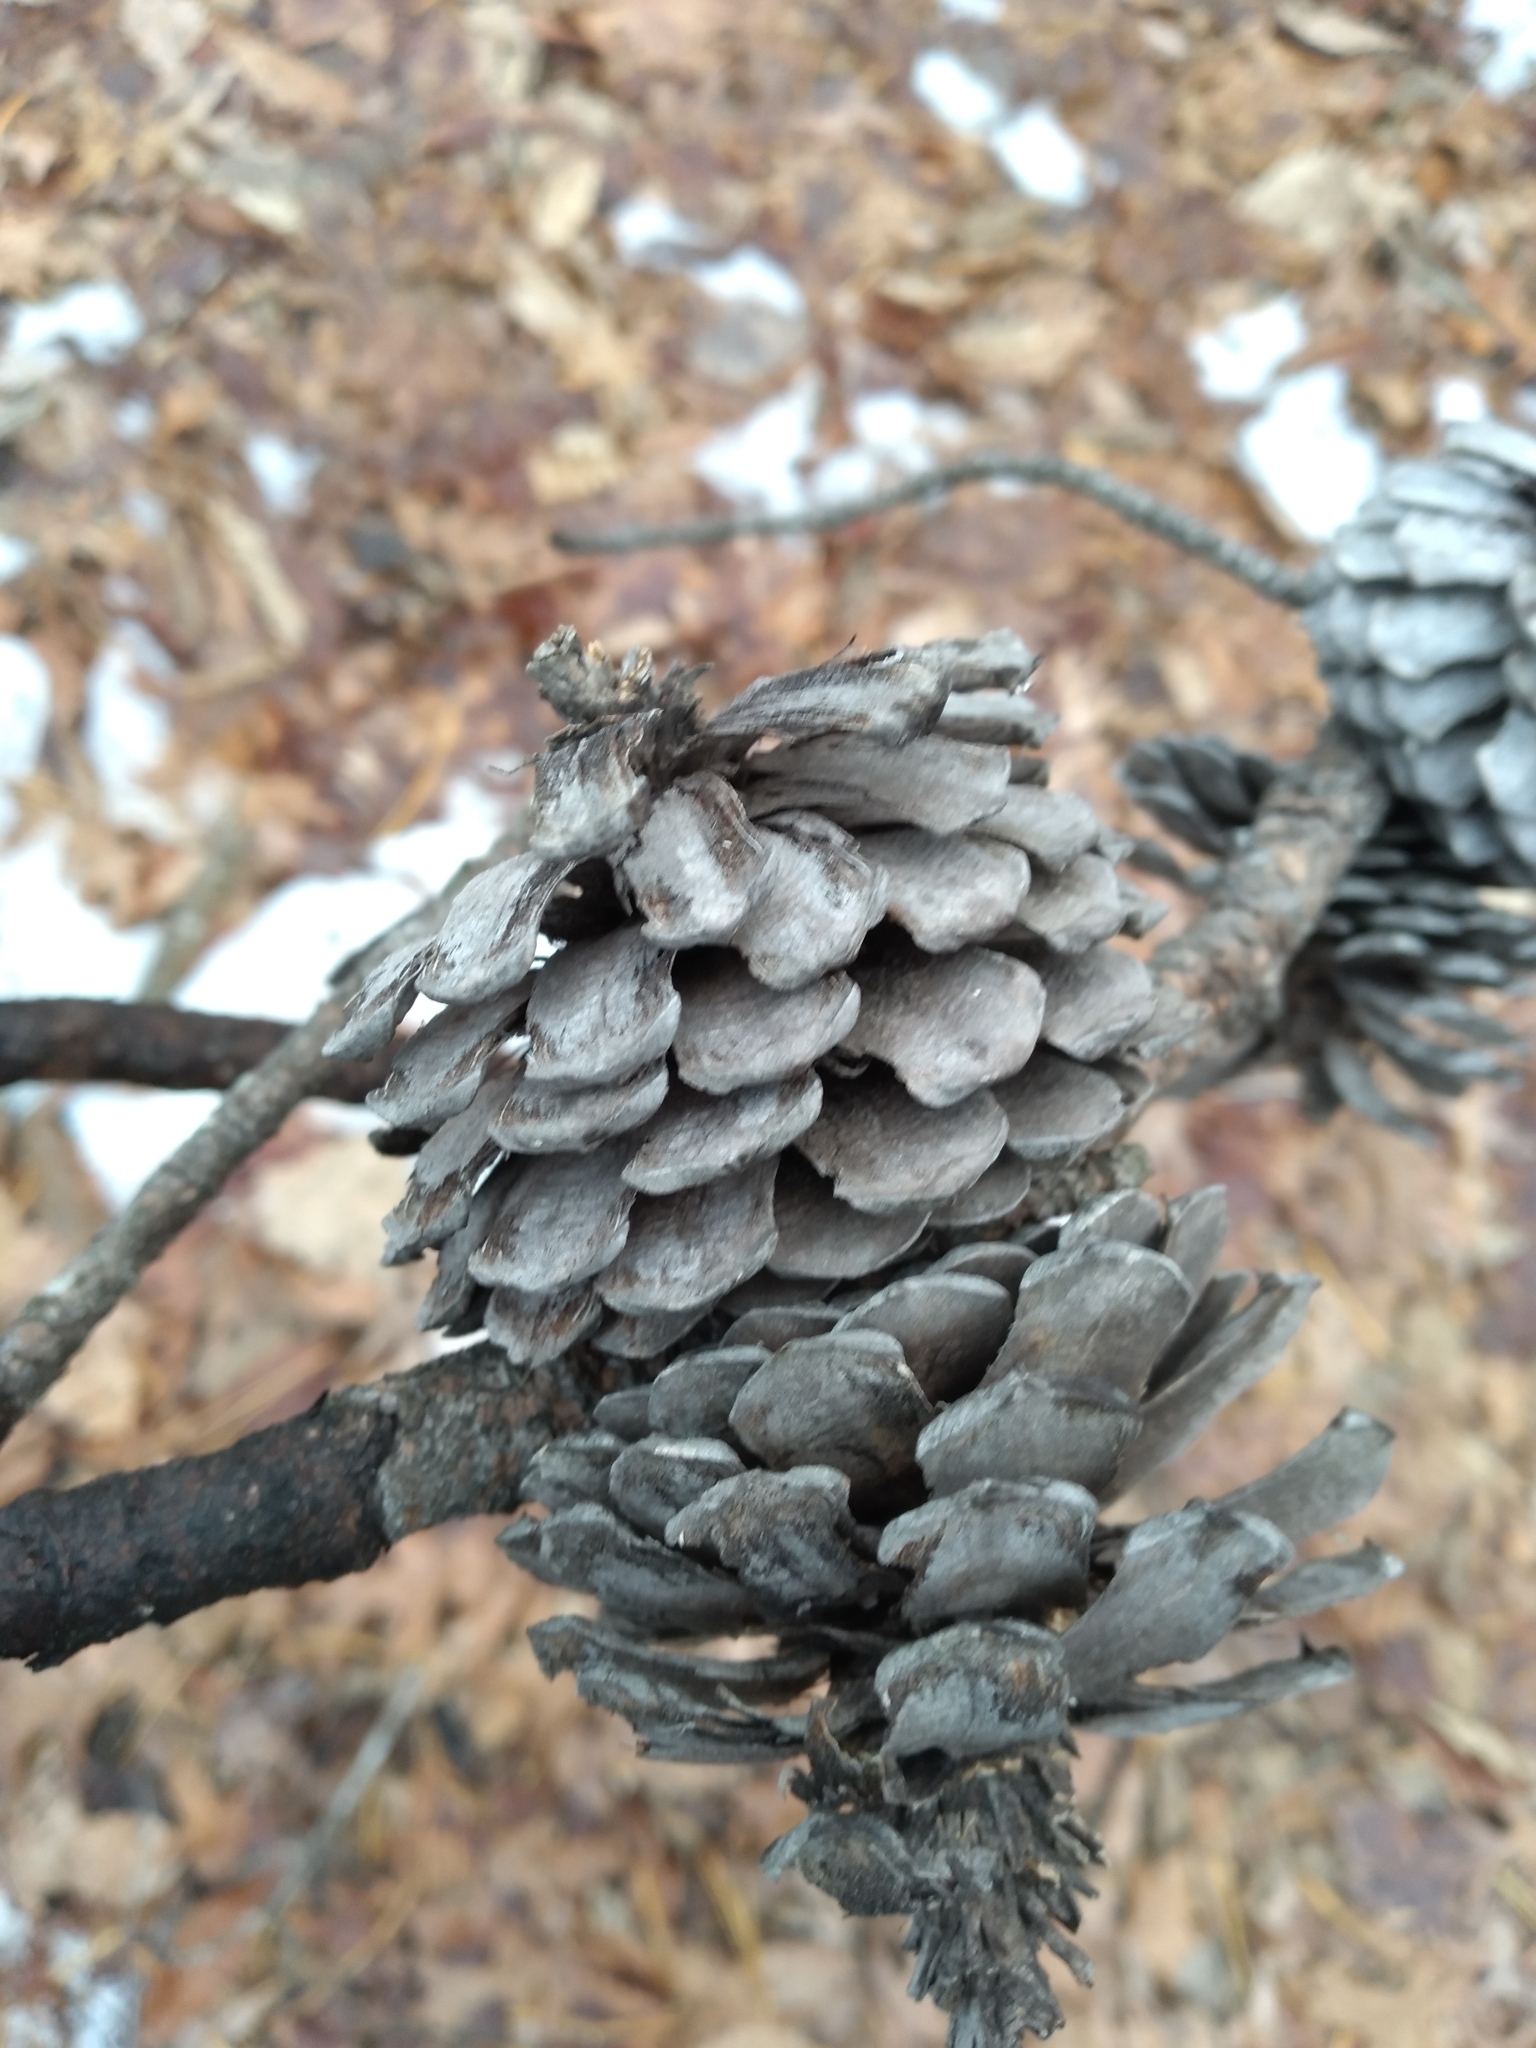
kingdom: Plantae
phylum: Tracheophyta
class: Pinopsida
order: Pinales
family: Pinaceae
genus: Pinus
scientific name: Pinus rigida
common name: Pitch pine
